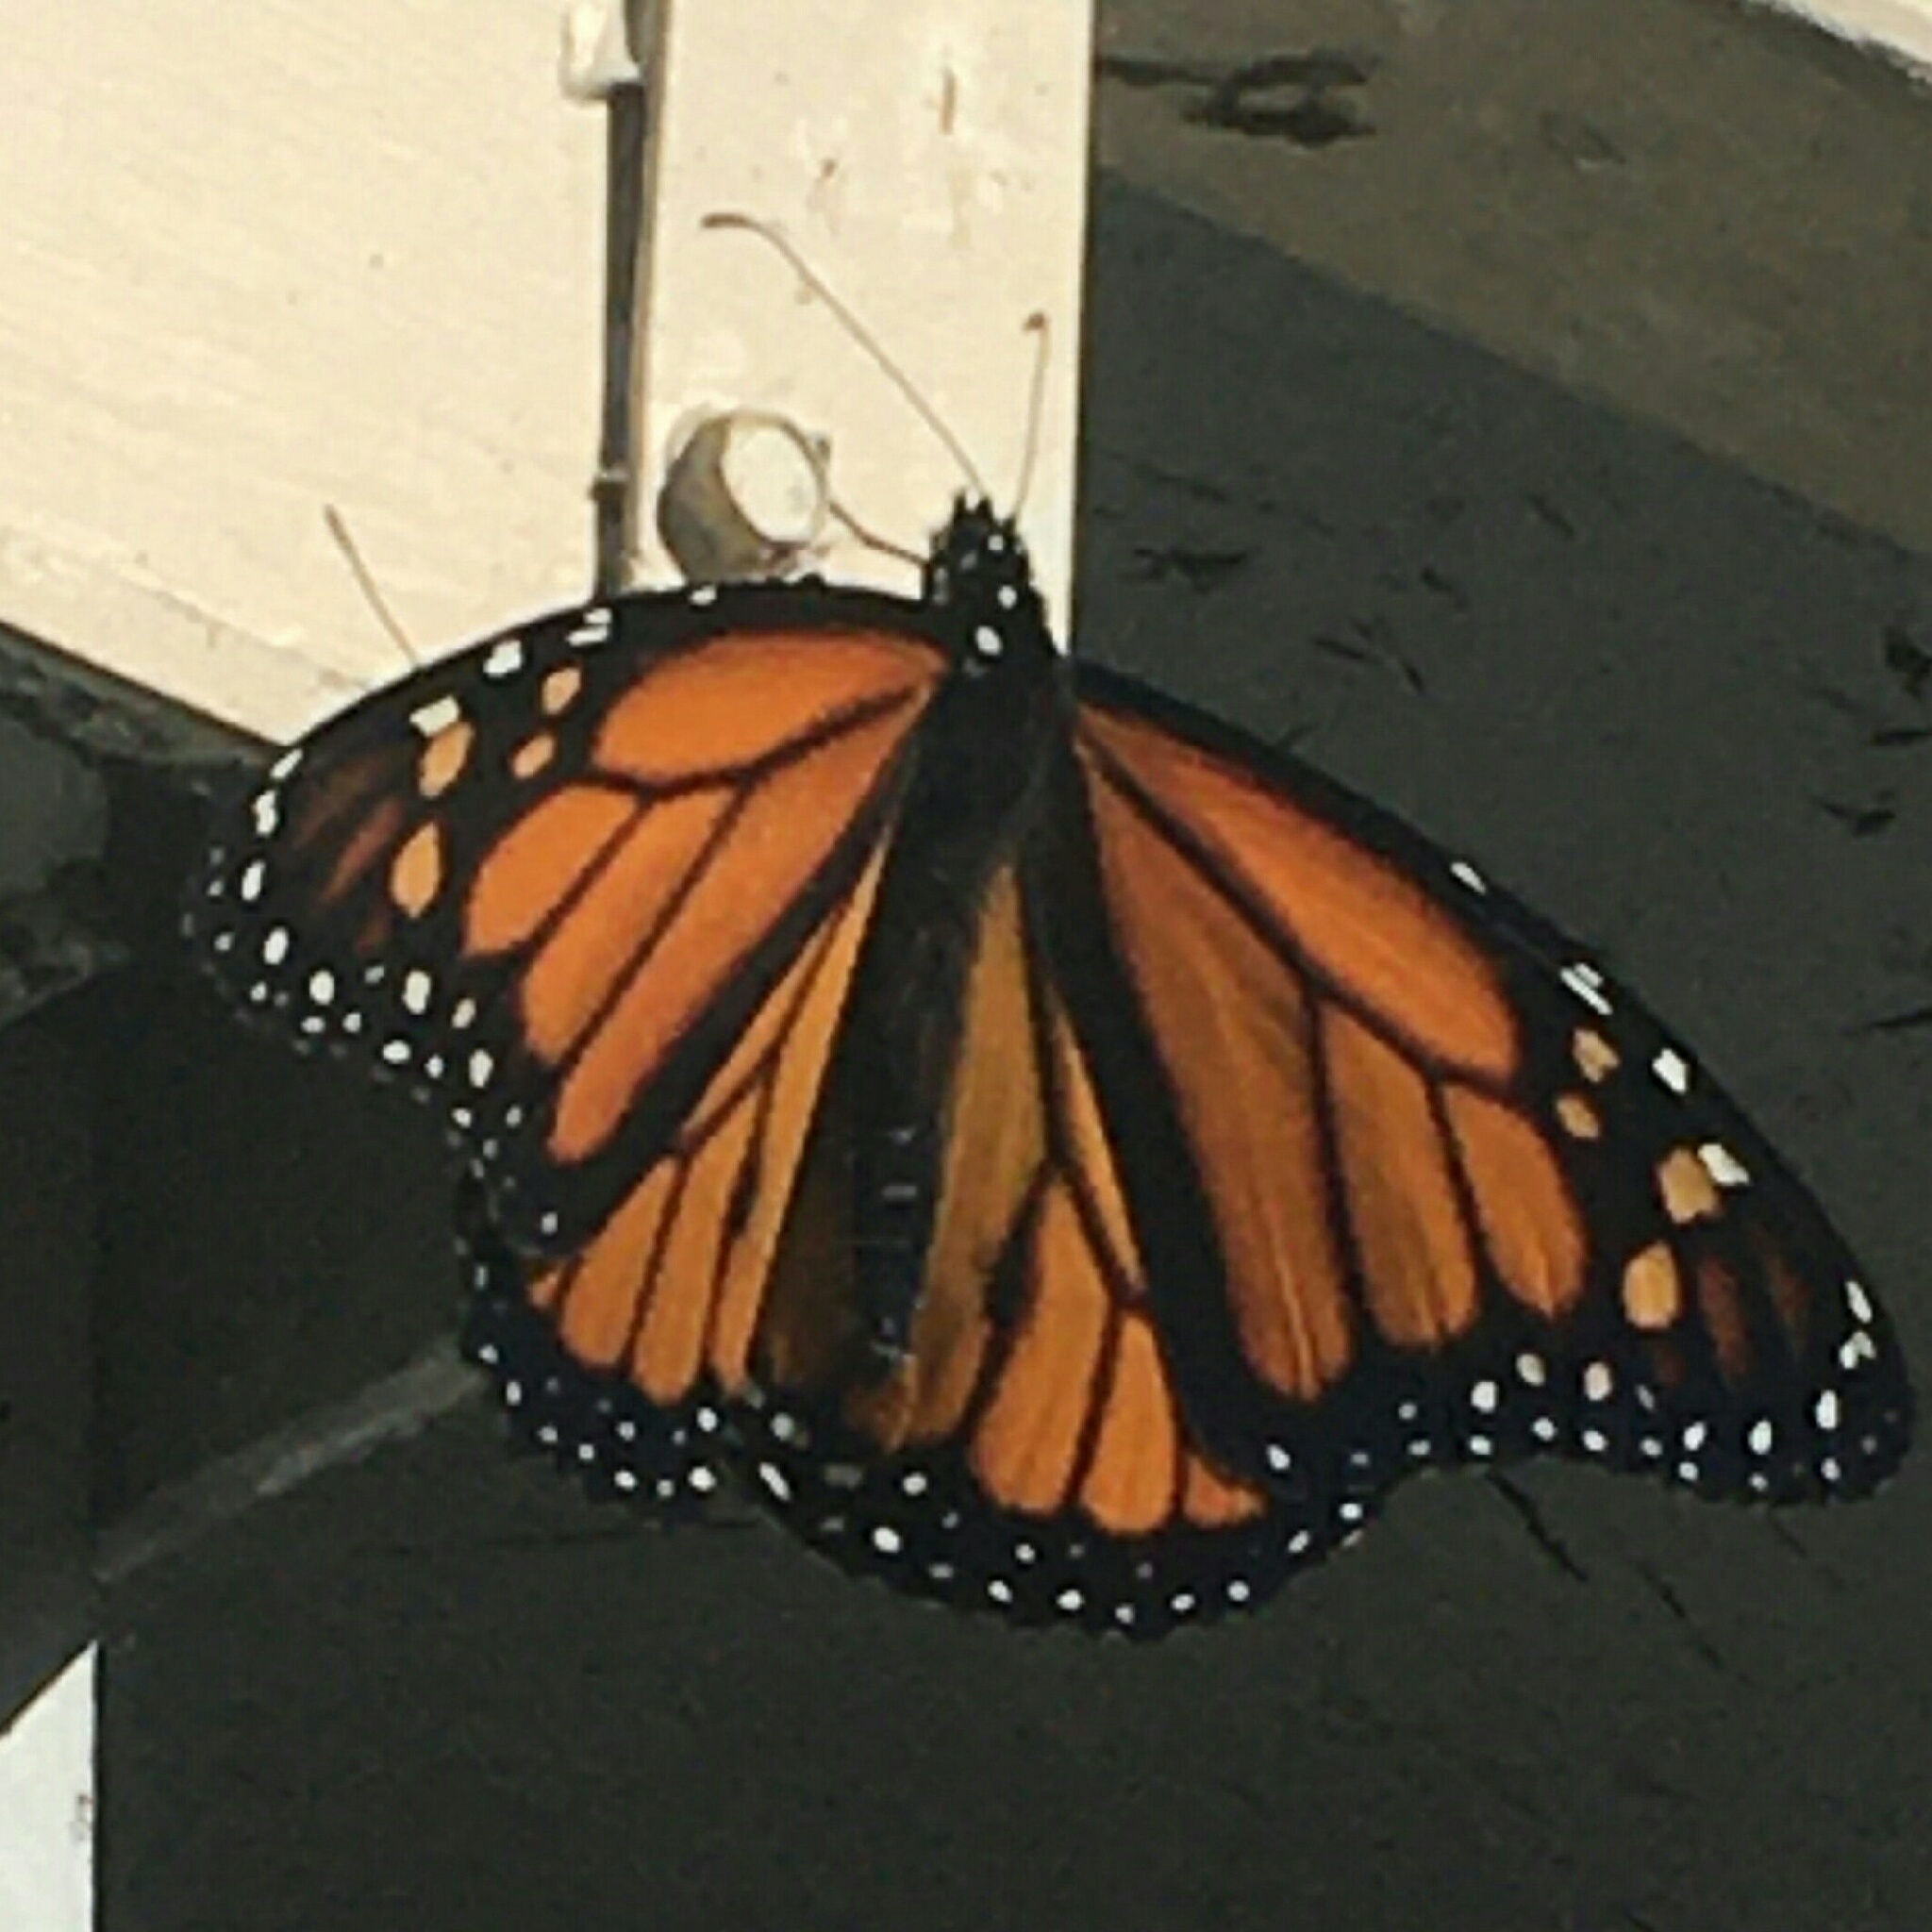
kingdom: Animalia
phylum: Arthropoda
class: Insecta
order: Lepidoptera
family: Nymphalidae
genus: Danaus
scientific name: Danaus plexippus
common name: Monarch
